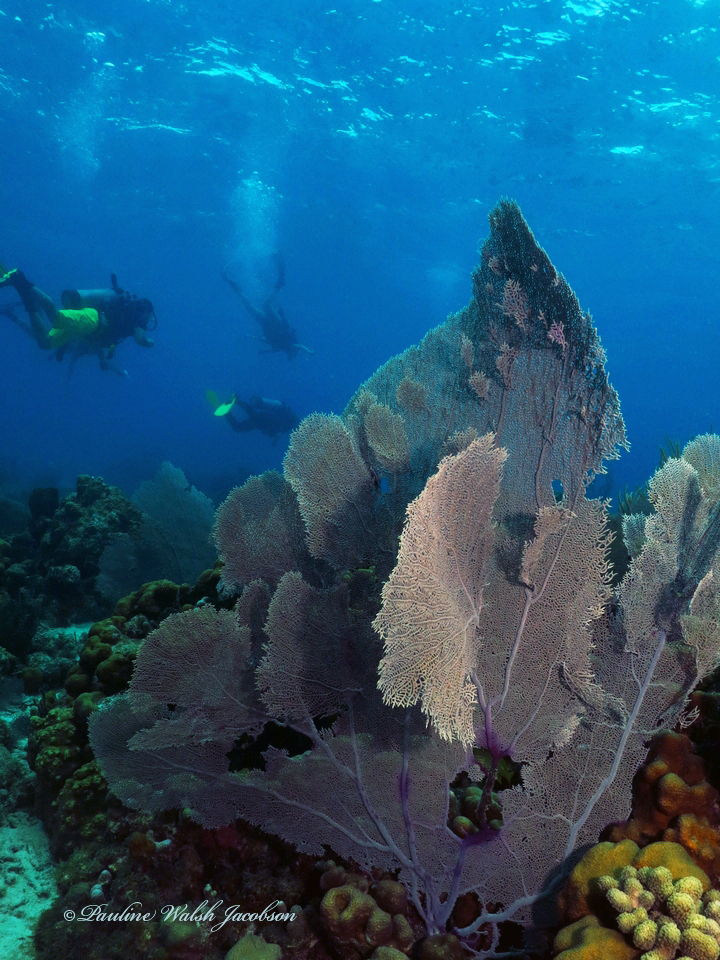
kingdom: Animalia
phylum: Cnidaria
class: Anthozoa
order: Malacalcyonacea
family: Gorgoniidae
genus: Gorgonia
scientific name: Gorgonia ventalina
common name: Common sea fan
